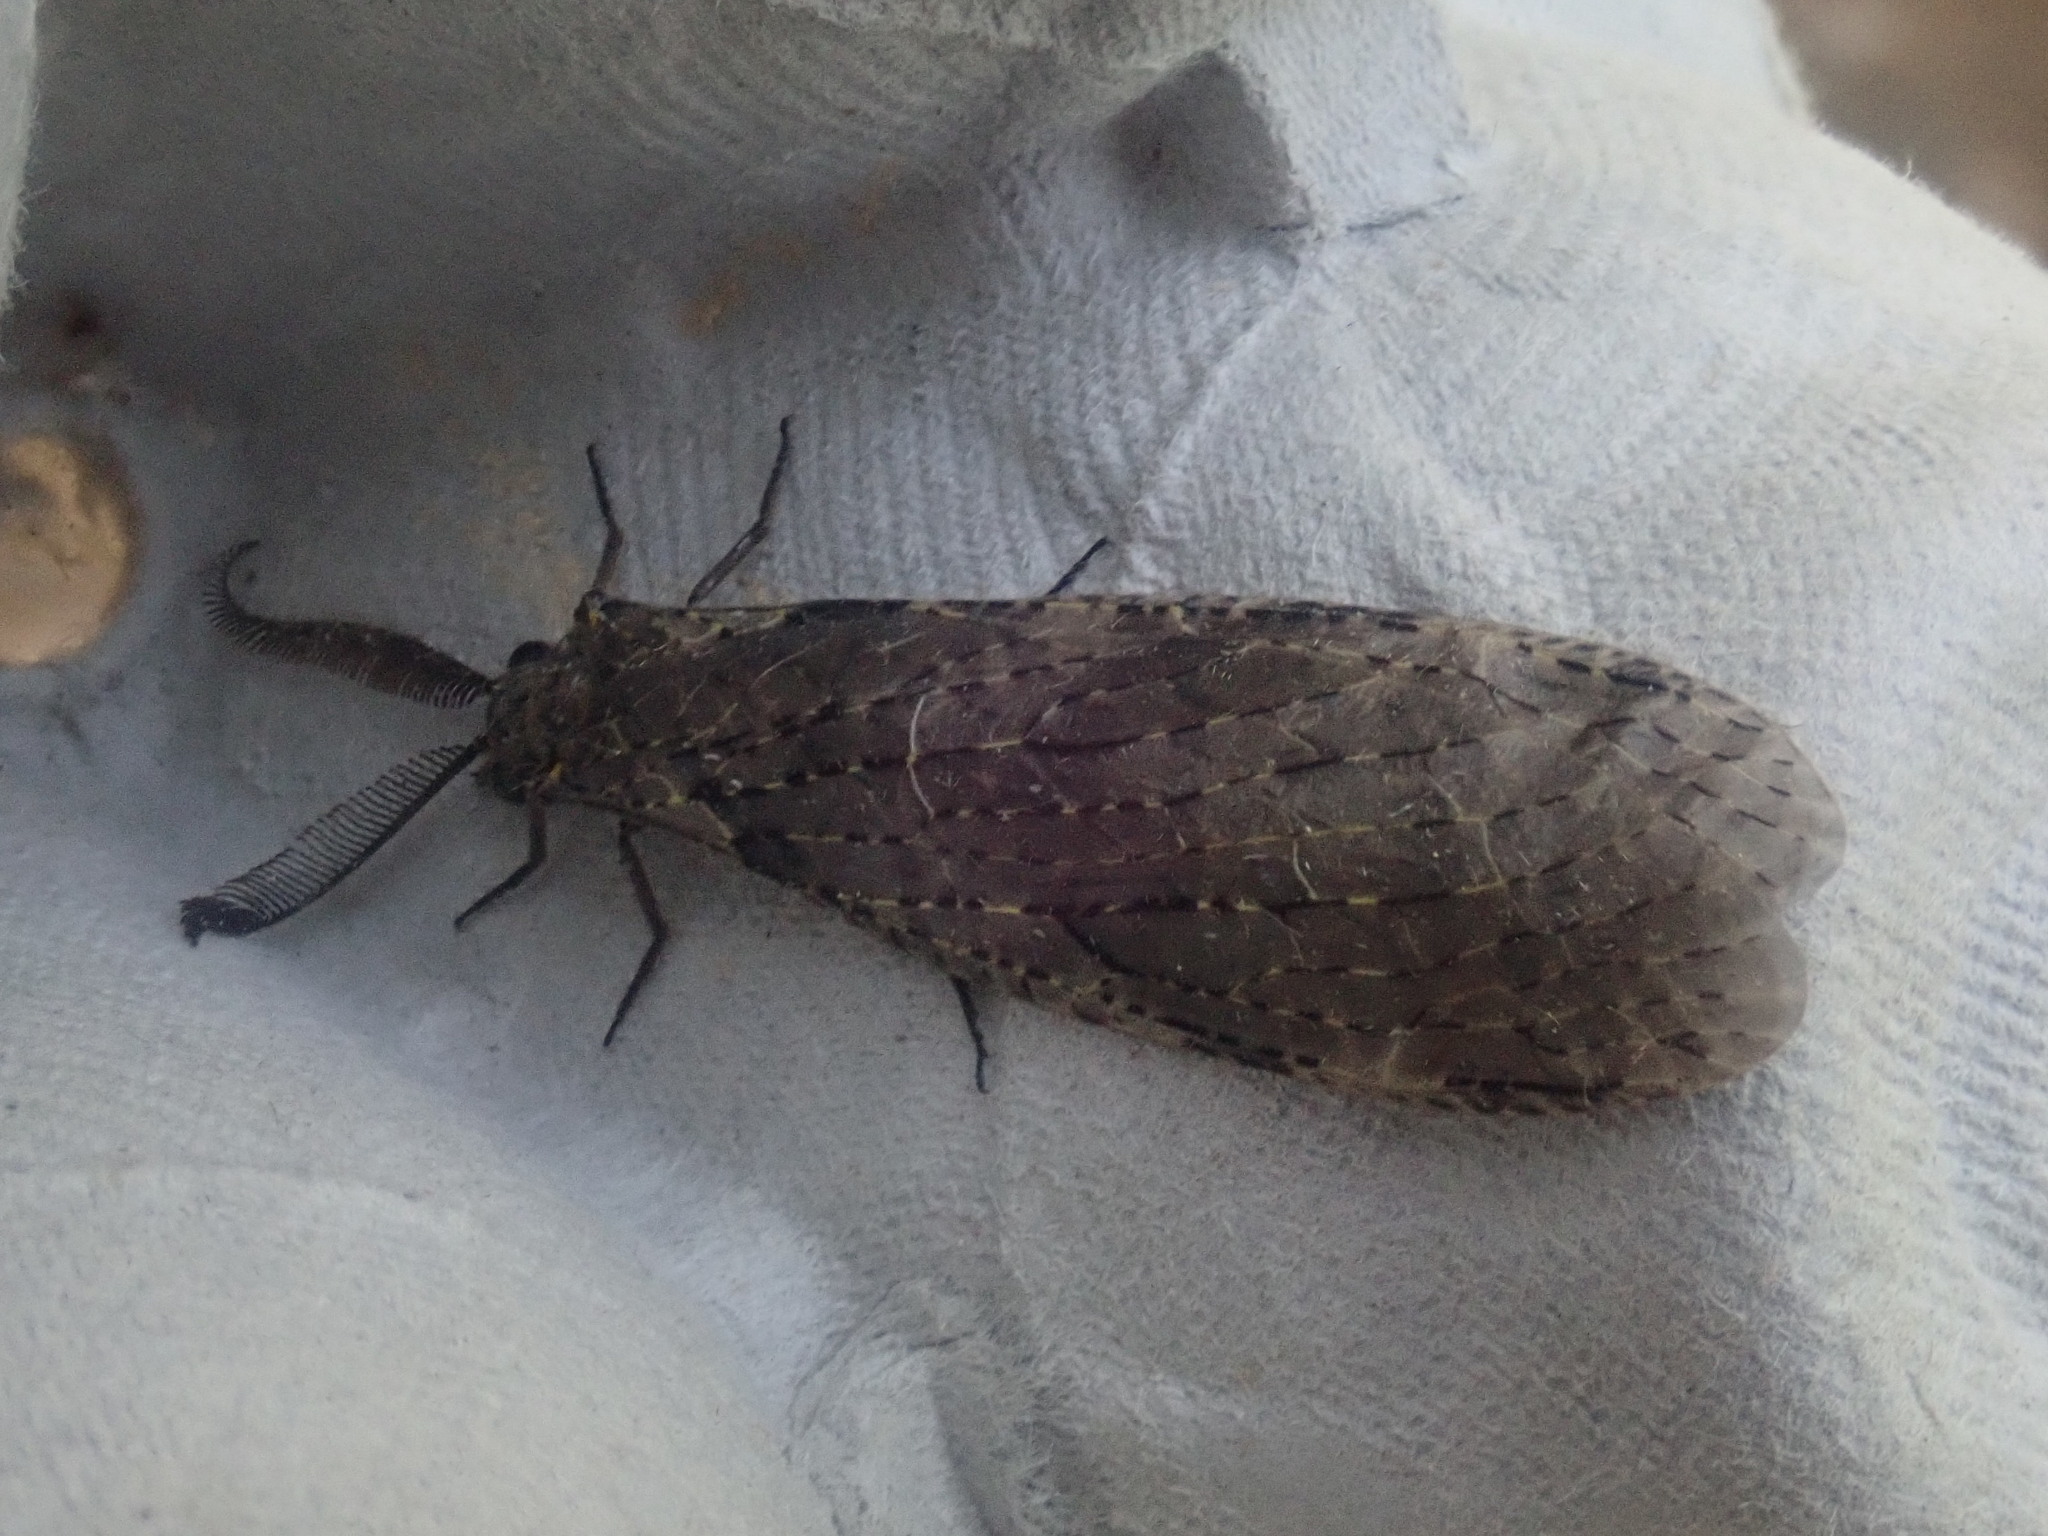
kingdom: Animalia
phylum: Arthropoda
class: Insecta
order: Megaloptera
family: Corydalidae
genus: Chauliodes
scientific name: Chauliodes rastricornis
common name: Spring fishfly
